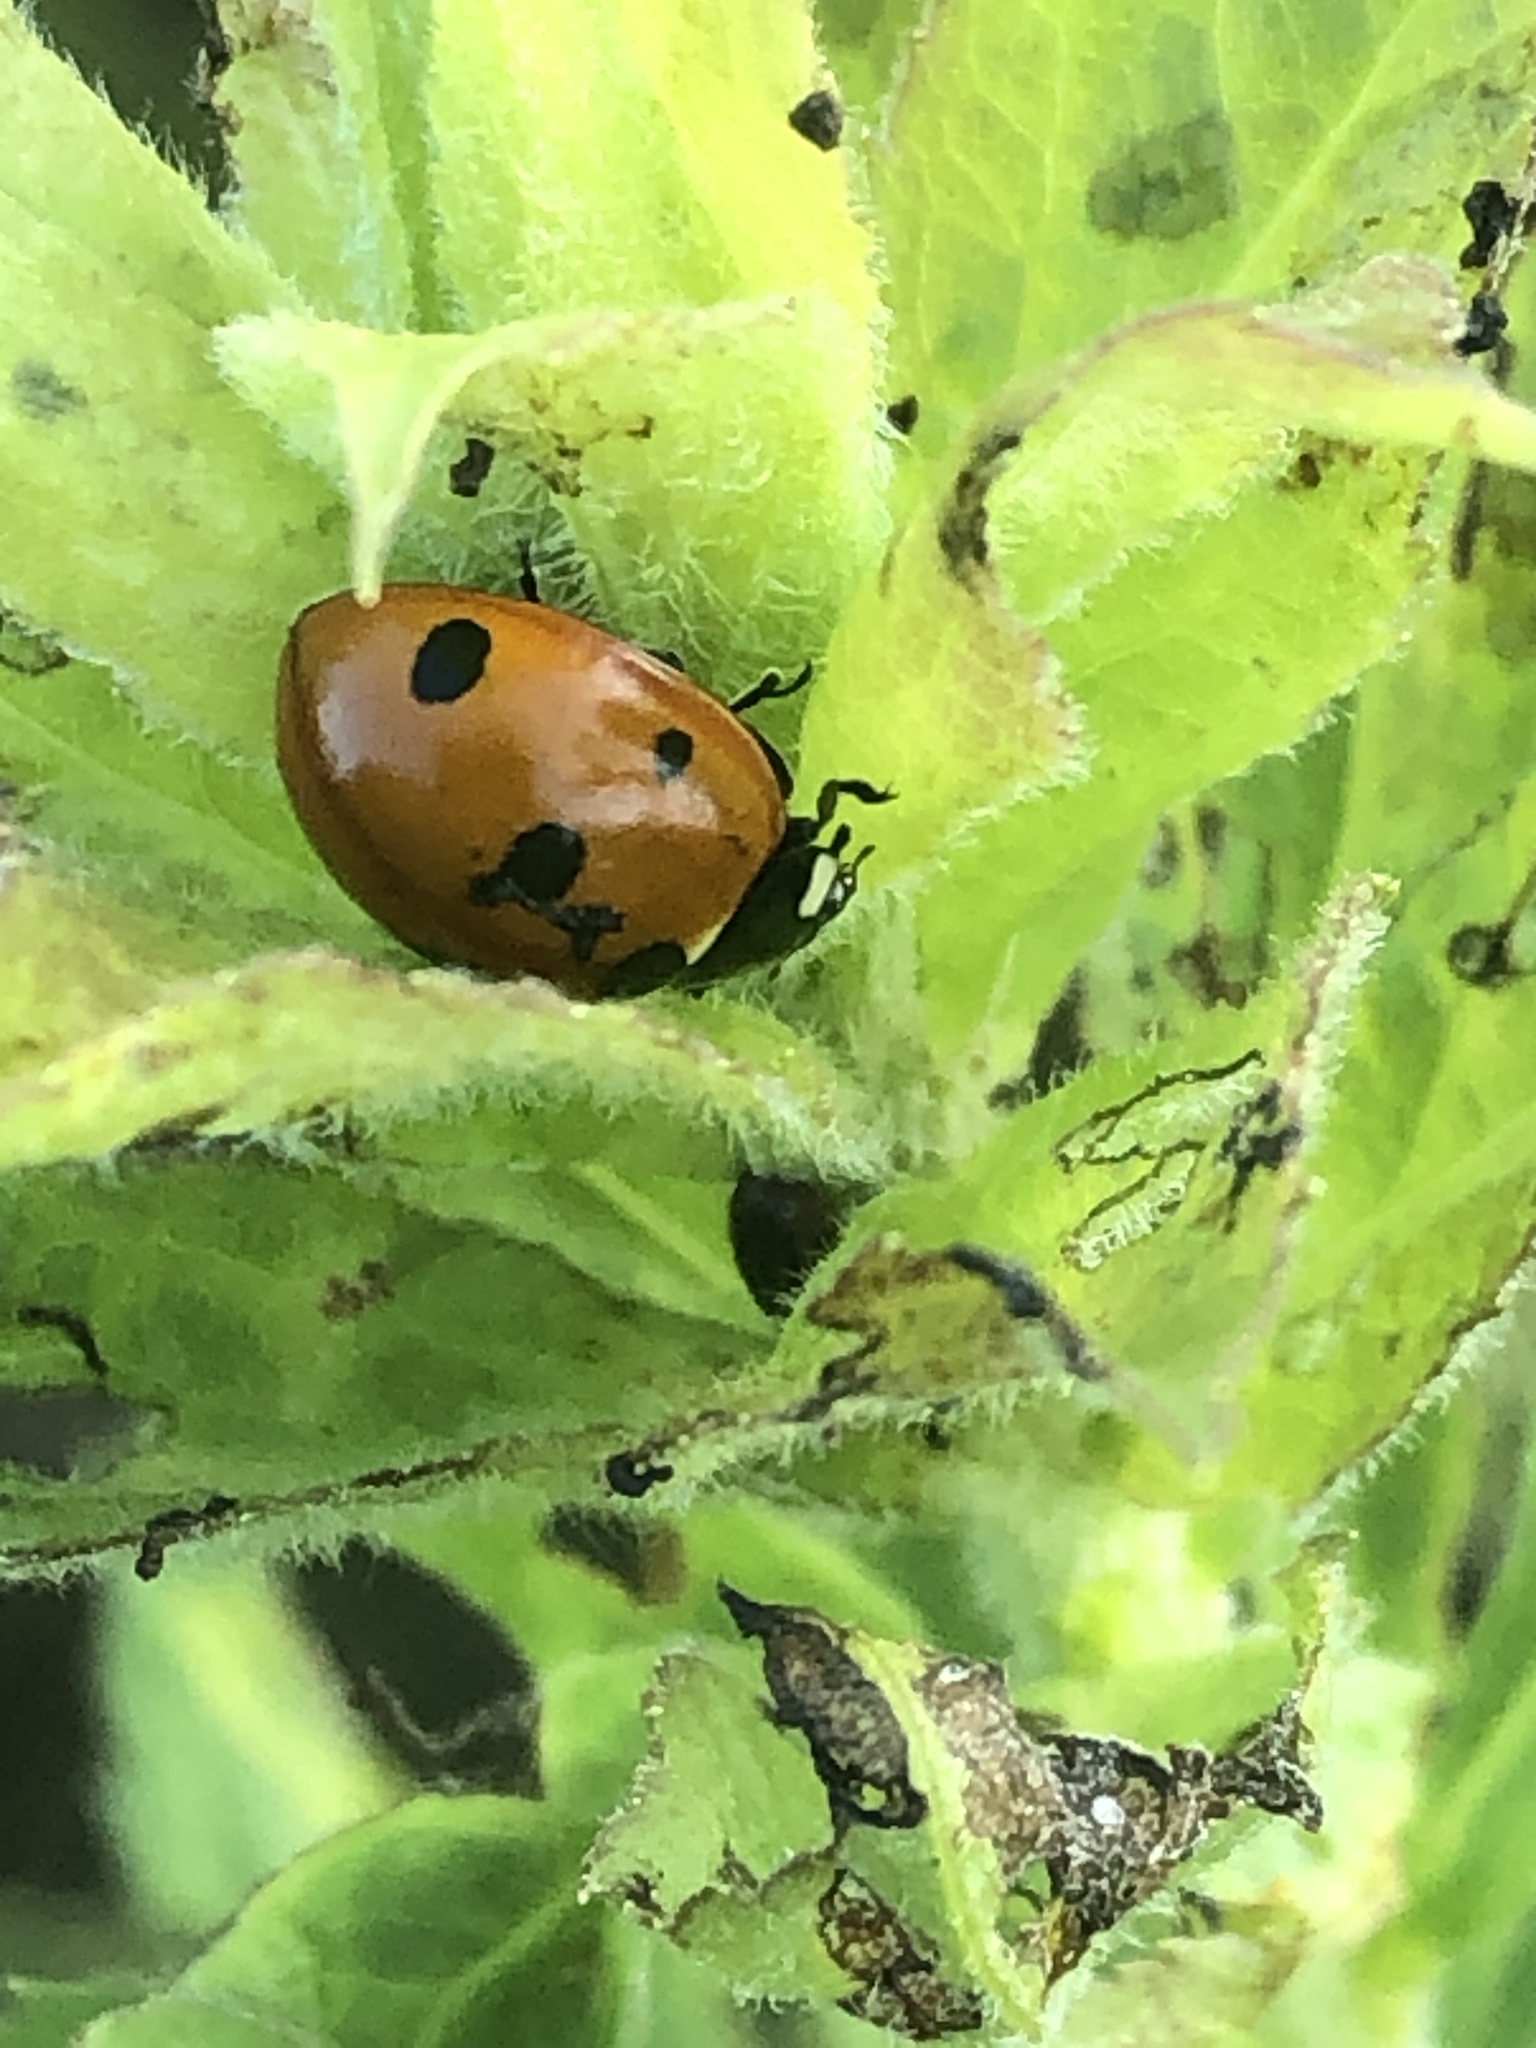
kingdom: Animalia
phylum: Arthropoda
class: Insecta
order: Coleoptera
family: Coccinellidae
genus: Coccinella
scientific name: Coccinella septempunctata
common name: Sevenspotted lady beetle
